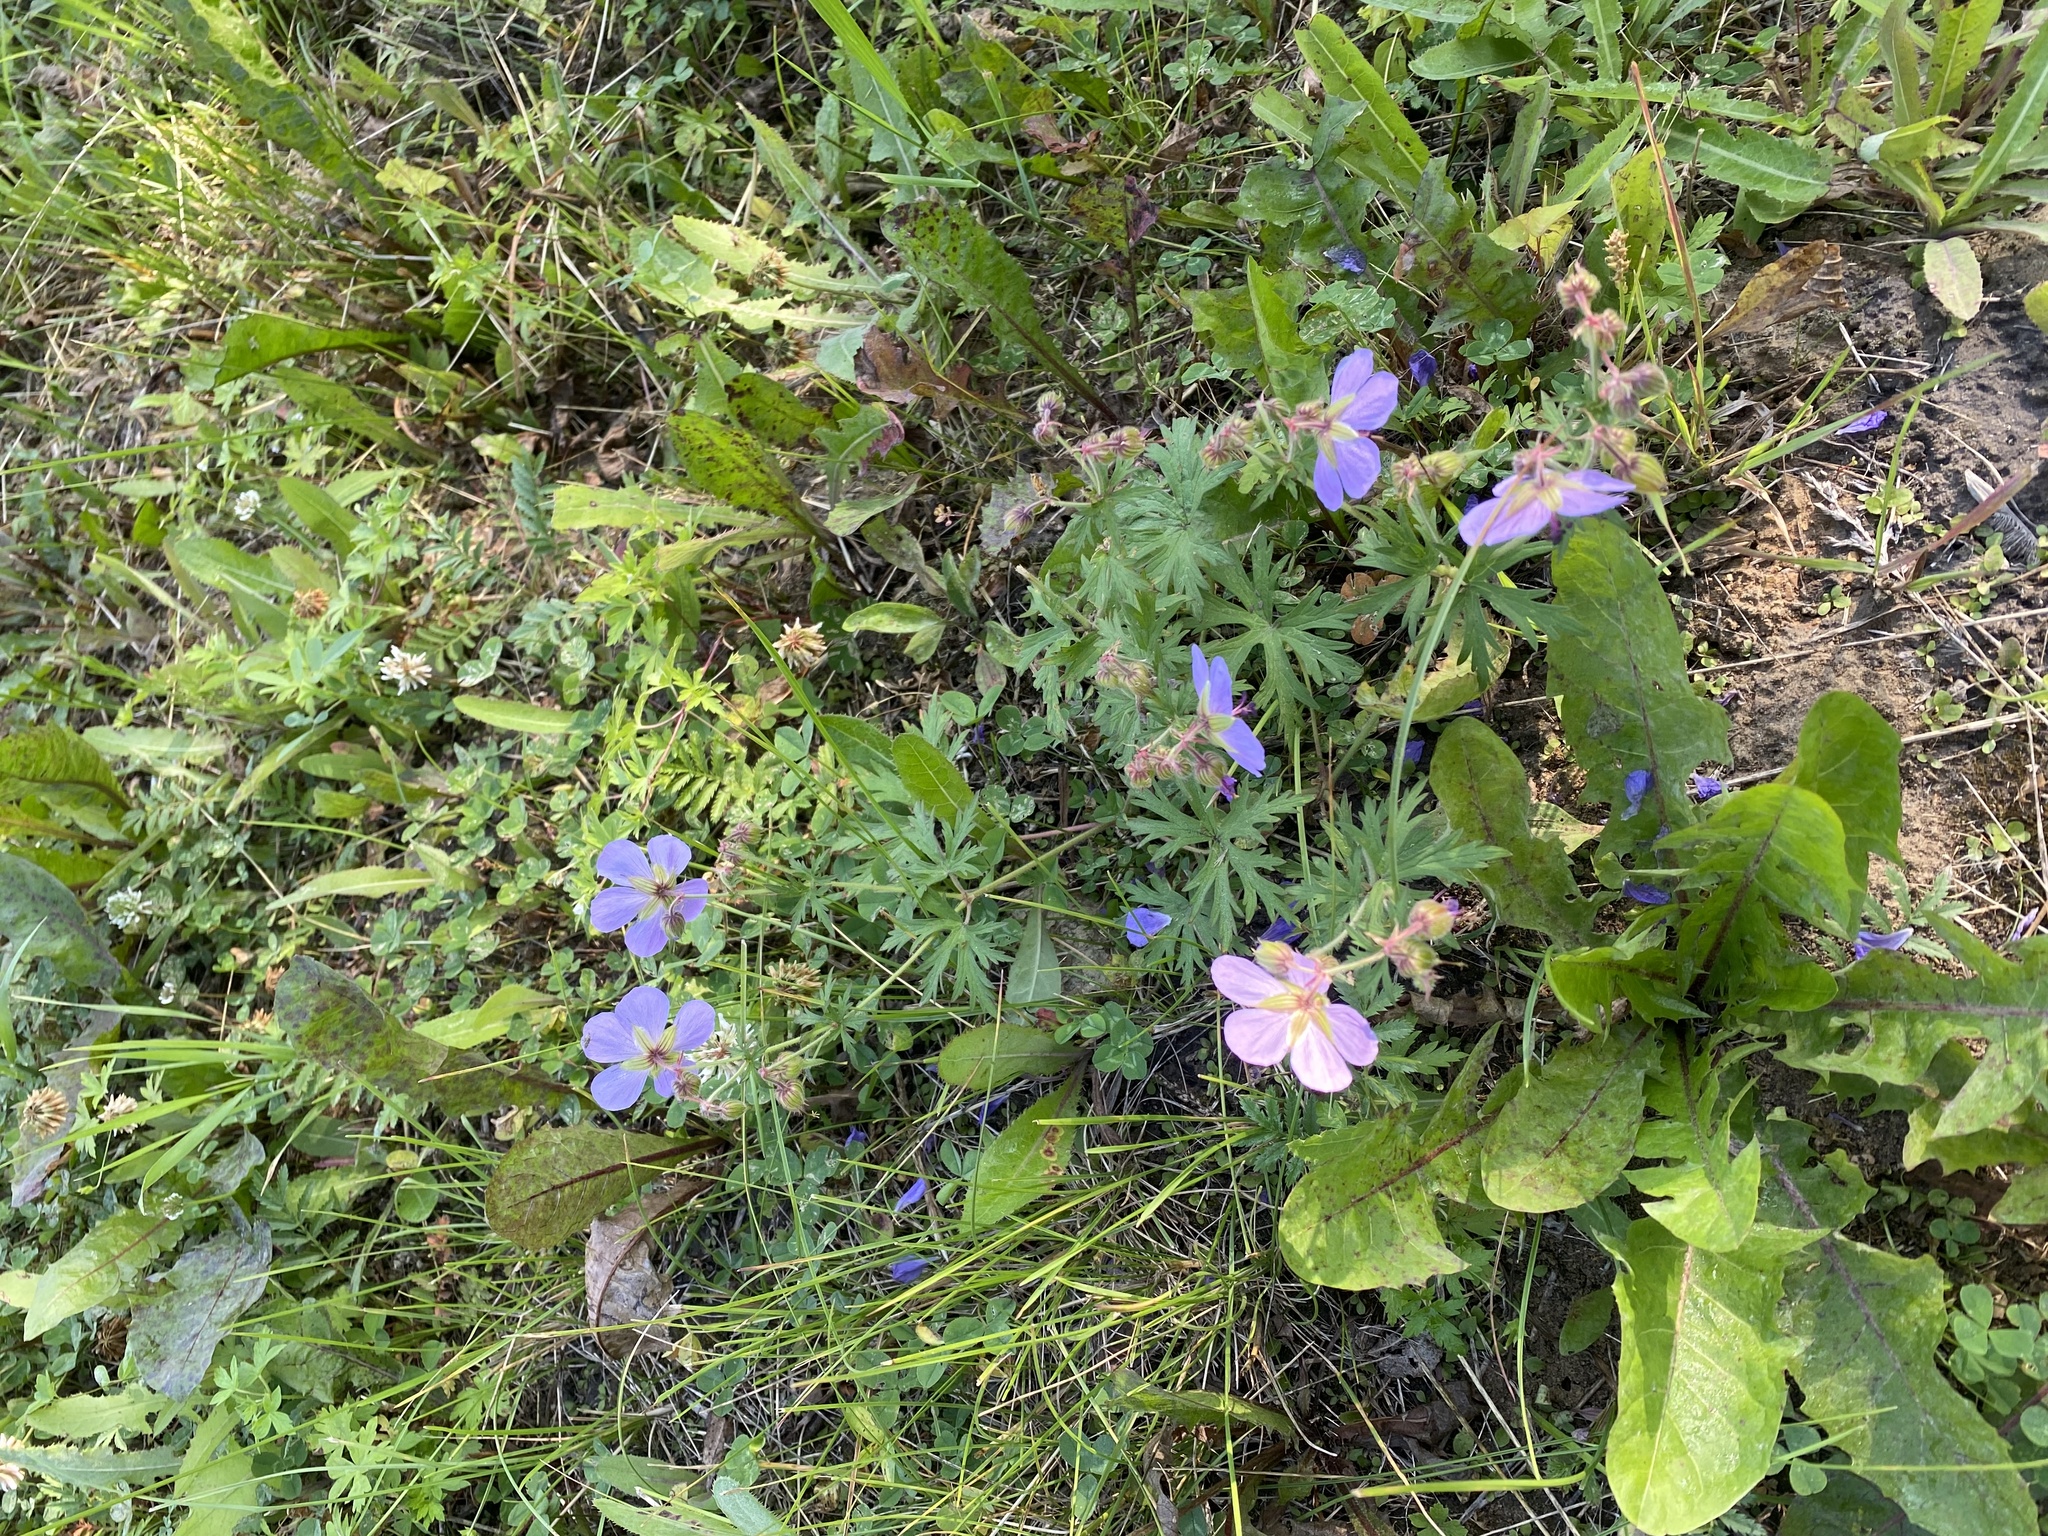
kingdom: Plantae
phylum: Tracheophyta
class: Magnoliopsida
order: Geraniales
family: Geraniaceae
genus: Geranium
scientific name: Geranium pratense
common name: Meadow crane's-bill
